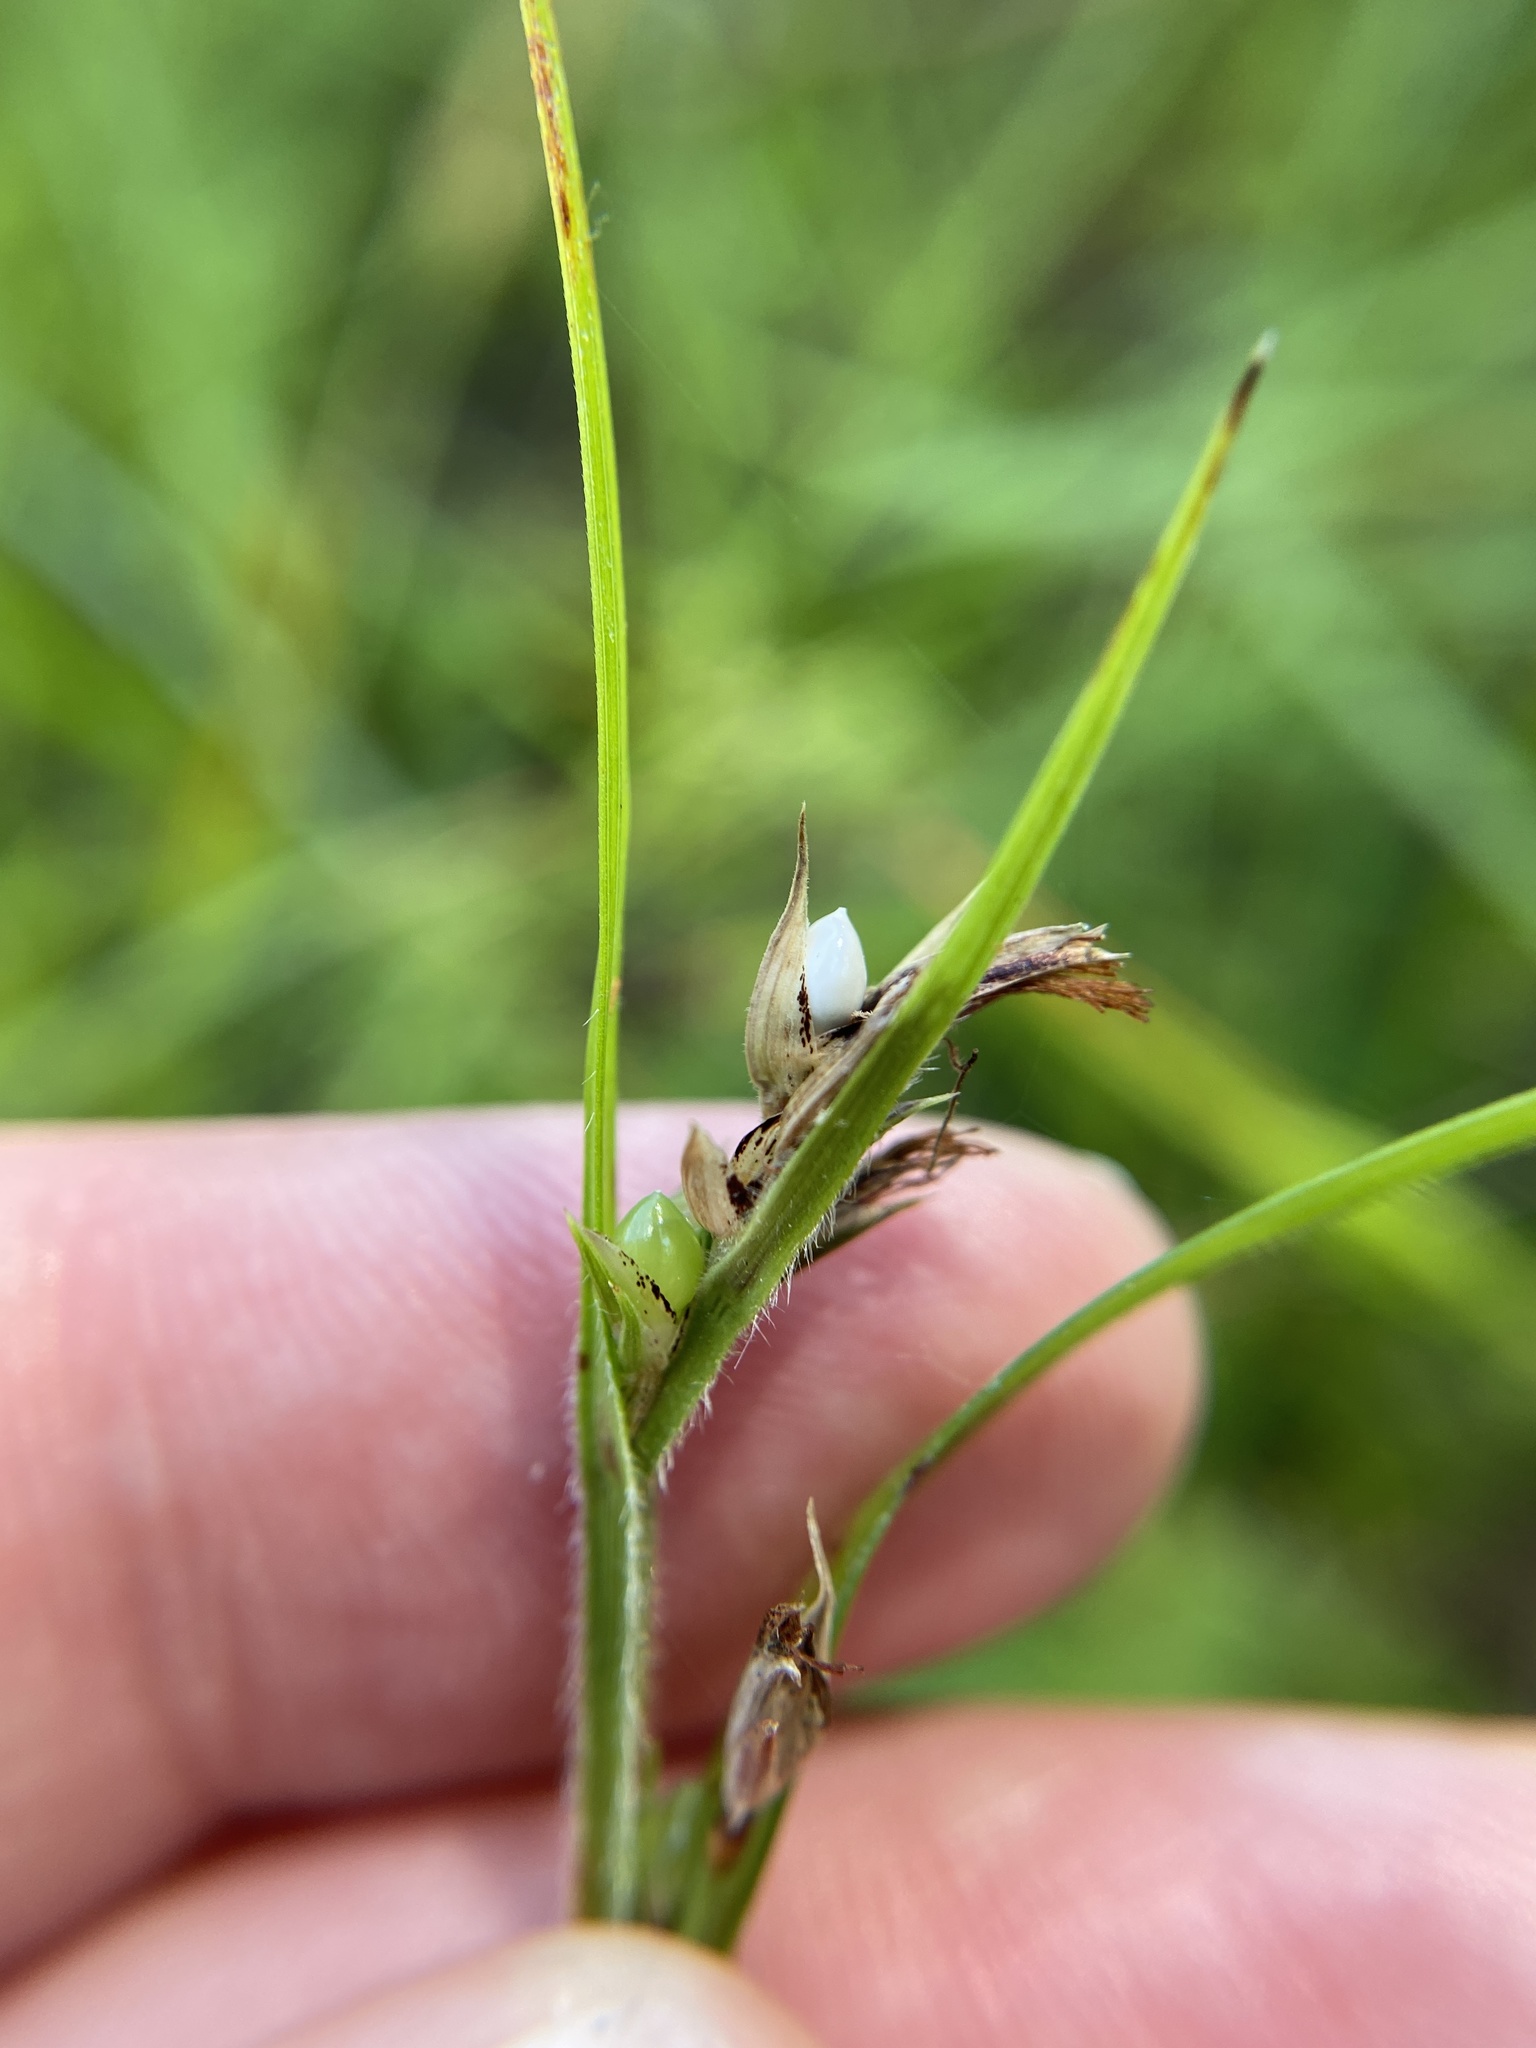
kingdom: Plantae
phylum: Tracheophyta
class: Liliopsida
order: Poales
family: Cyperaceae
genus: Scleria
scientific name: Scleria oligantha
